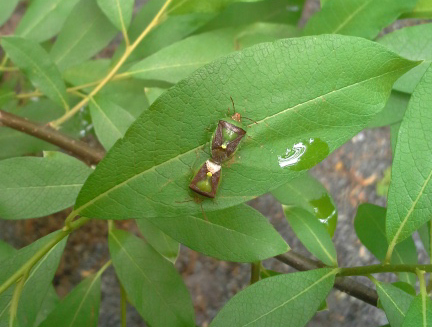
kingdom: Animalia
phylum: Arthropoda
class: Insecta
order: Hemiptera
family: Pentatomidae
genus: Banasa
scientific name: Banasa dimidiata
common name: Green burgundy stink bug
